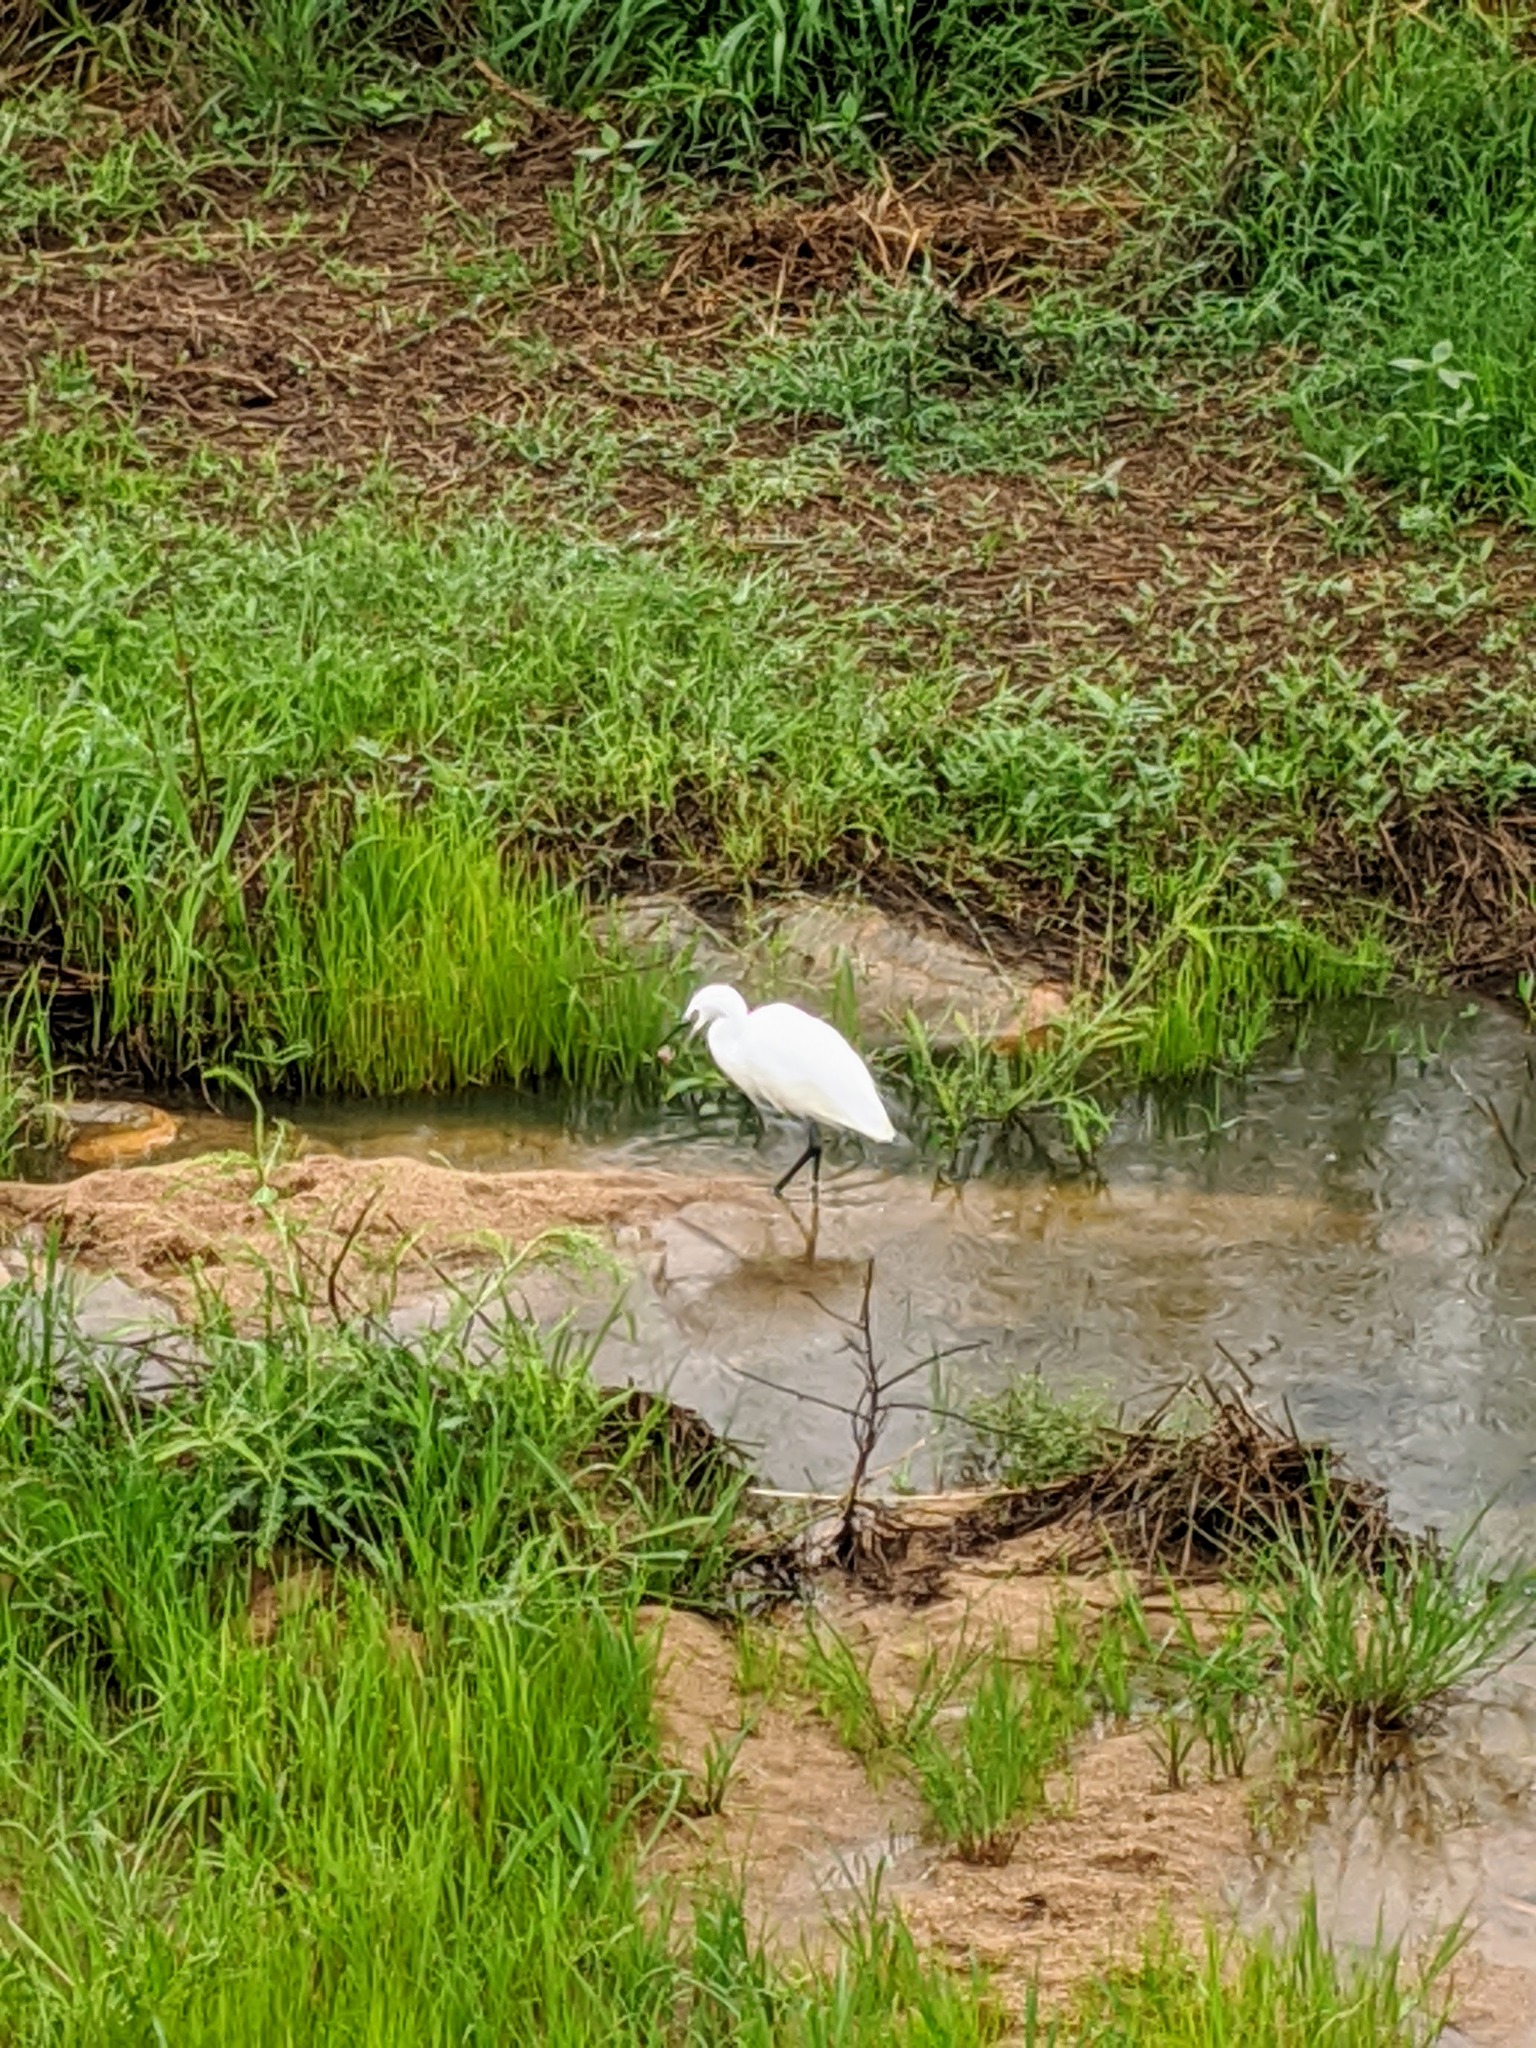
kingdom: Animalia
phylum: Chordata
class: Aves
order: Pelecaniformes
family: Ardeidae
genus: Egretta
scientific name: Egretta garzetta
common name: Little egret
